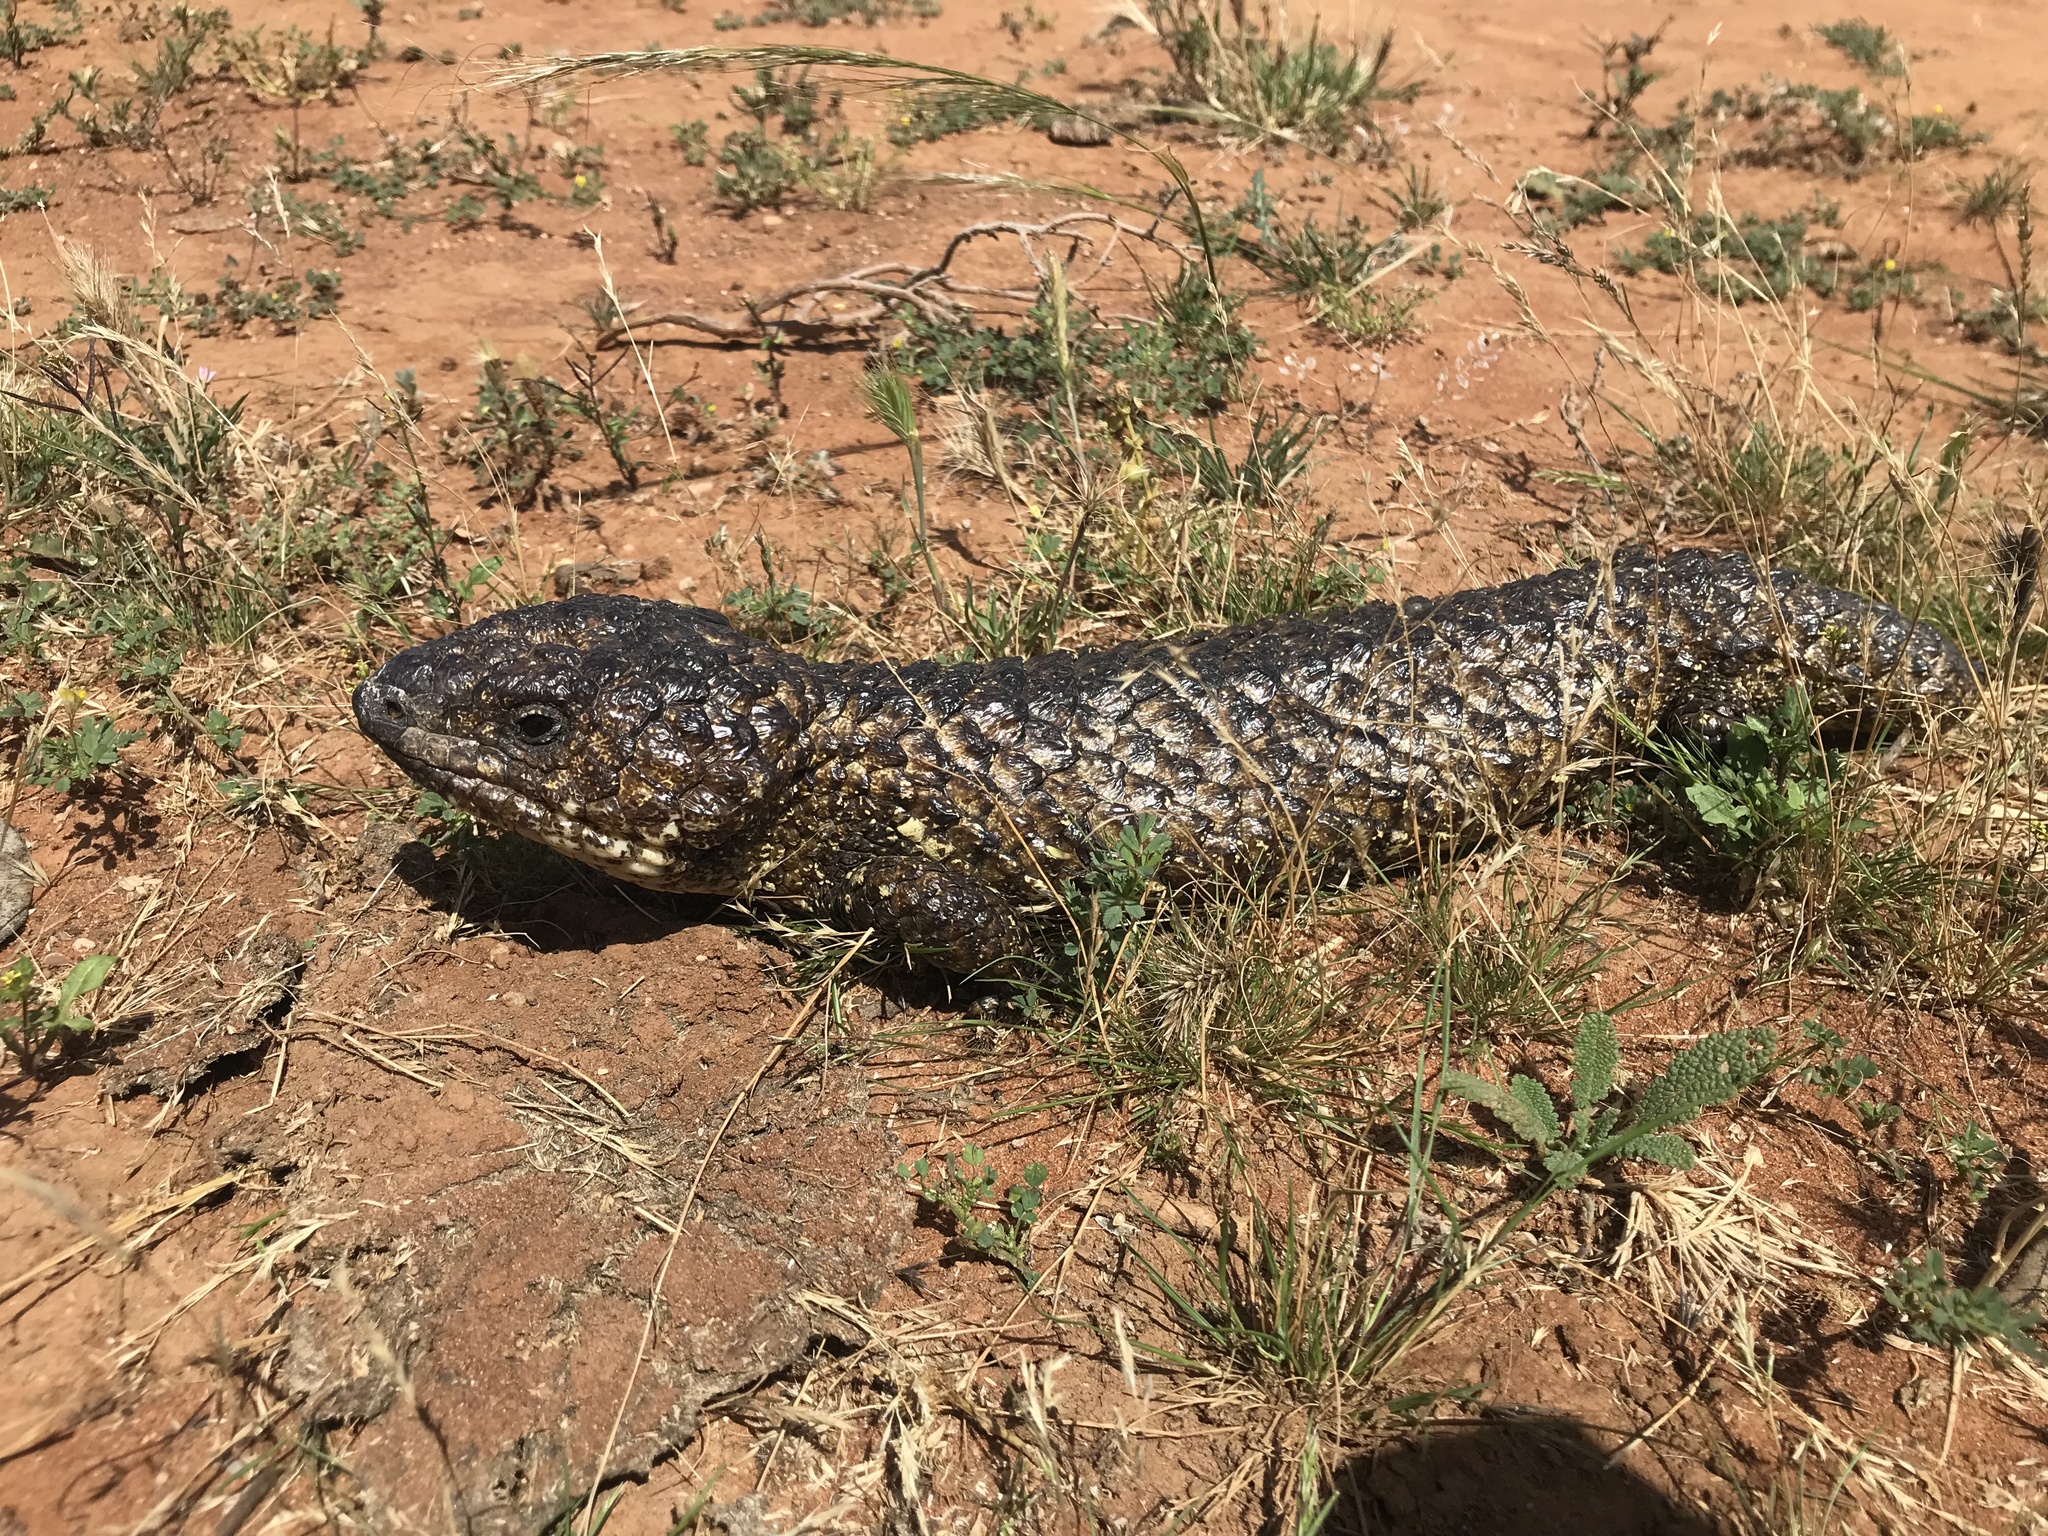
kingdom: Animalia
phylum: Chordata
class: Squamata
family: Scincidae
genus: Tiliqua
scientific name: Tiliqua rugosa
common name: Pinecone lizard
